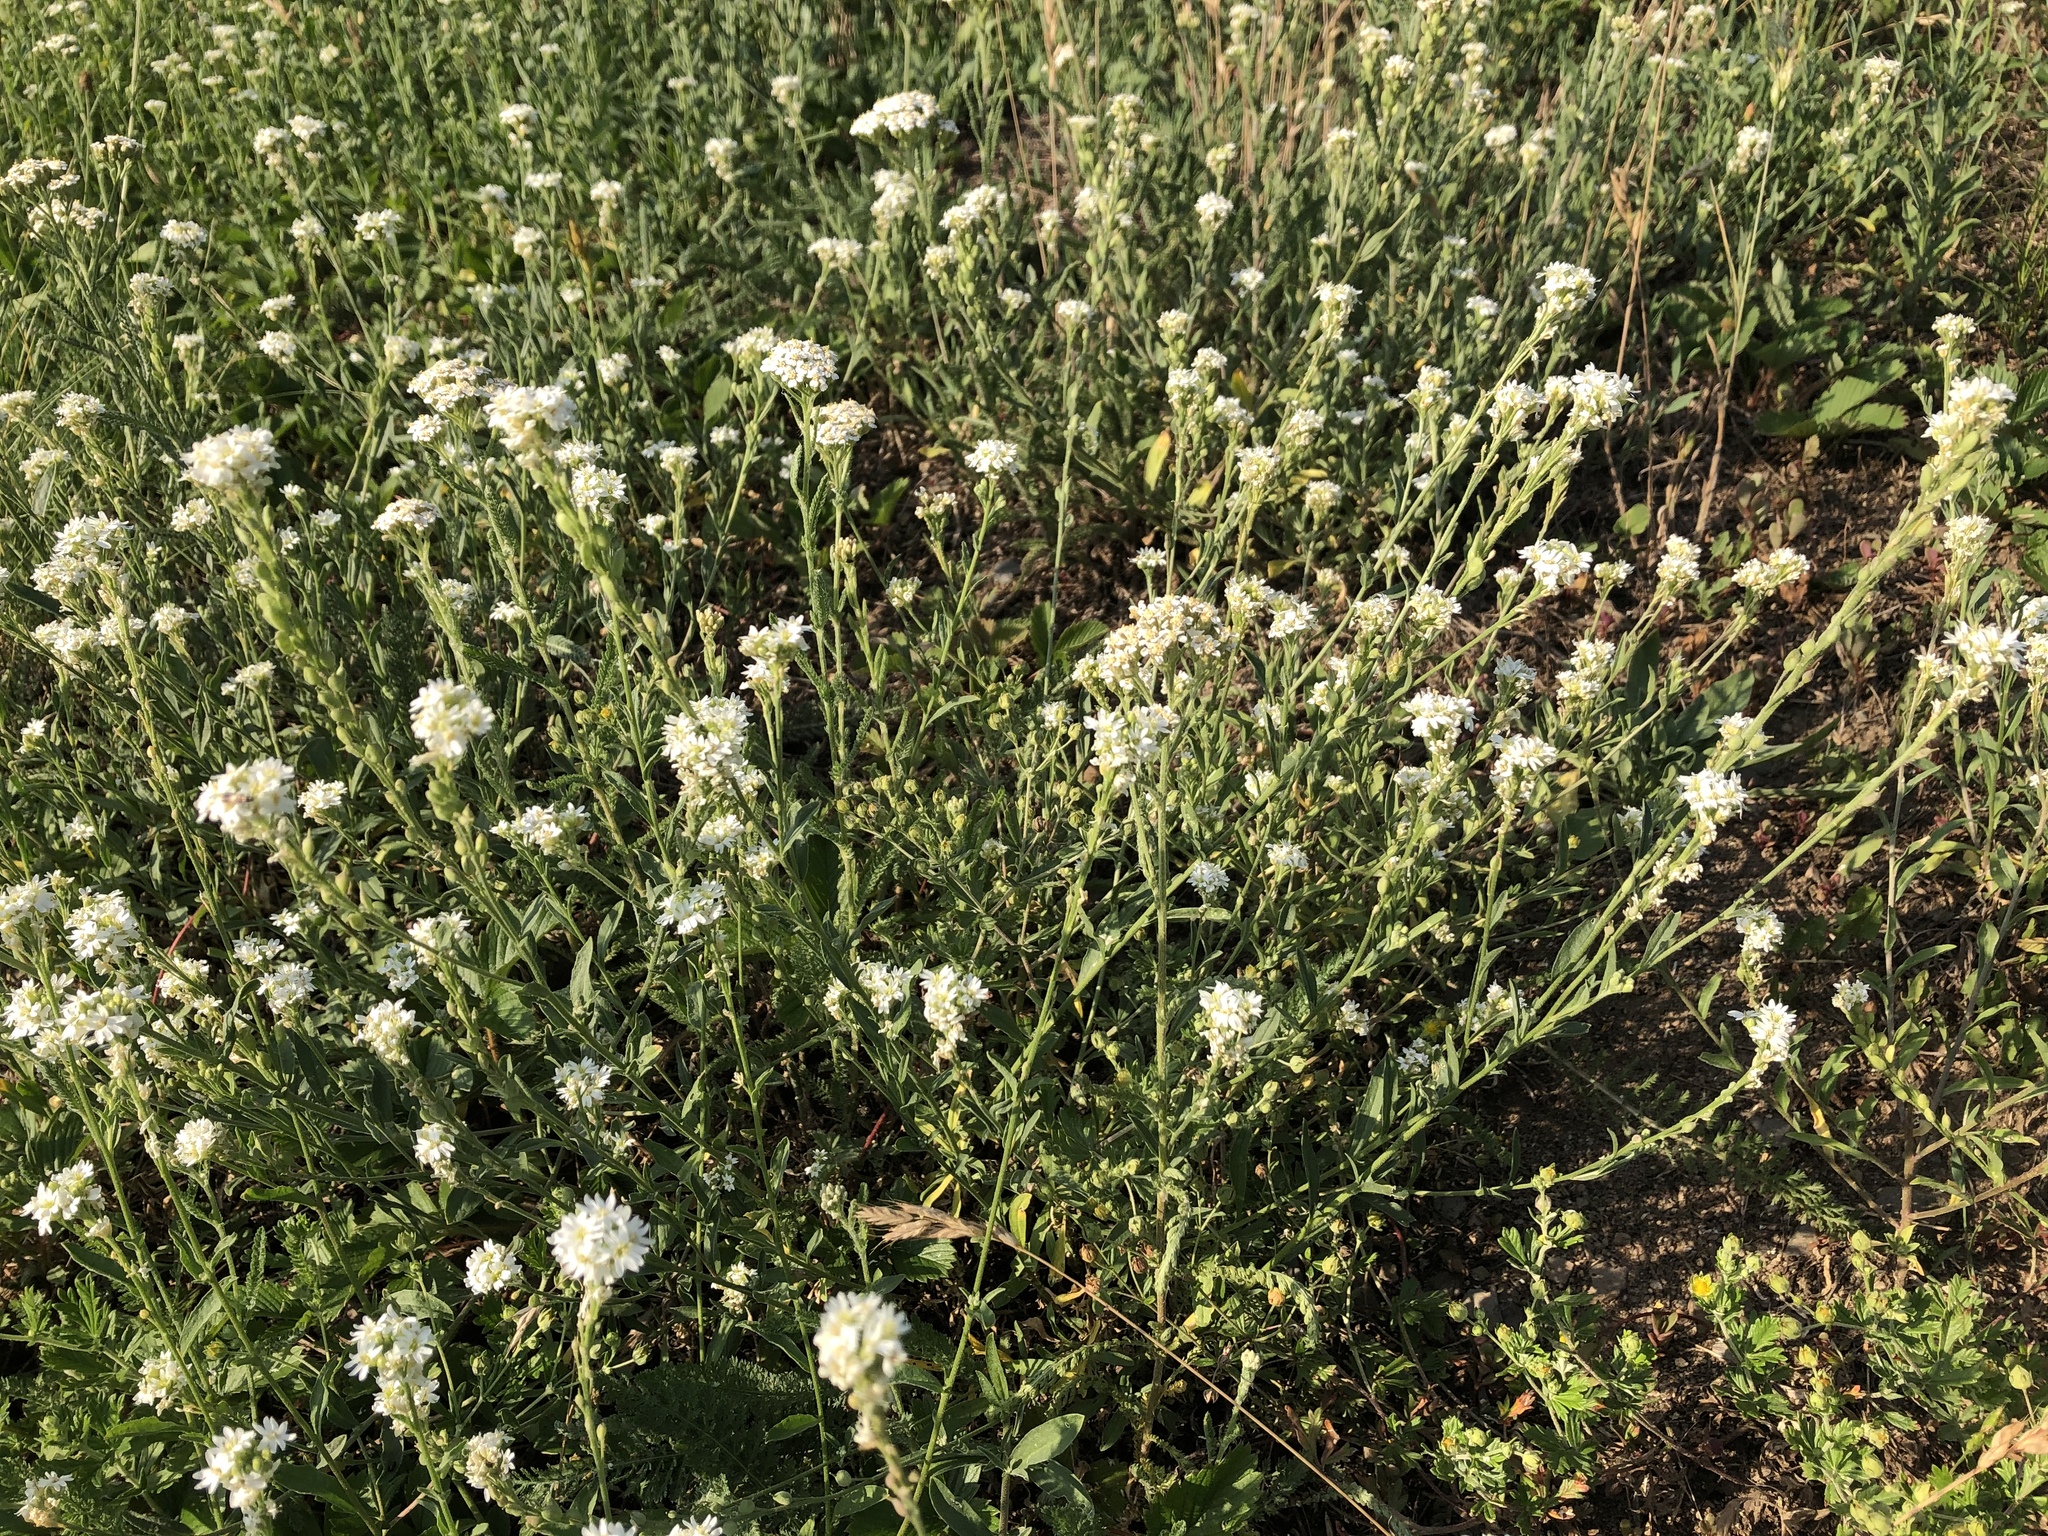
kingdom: Plantae
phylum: Tracheophyta
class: Magnoliopsida
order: Brassicales
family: Brassicaceae
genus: Berteroa
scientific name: Berteroa incana
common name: Hoary alison
